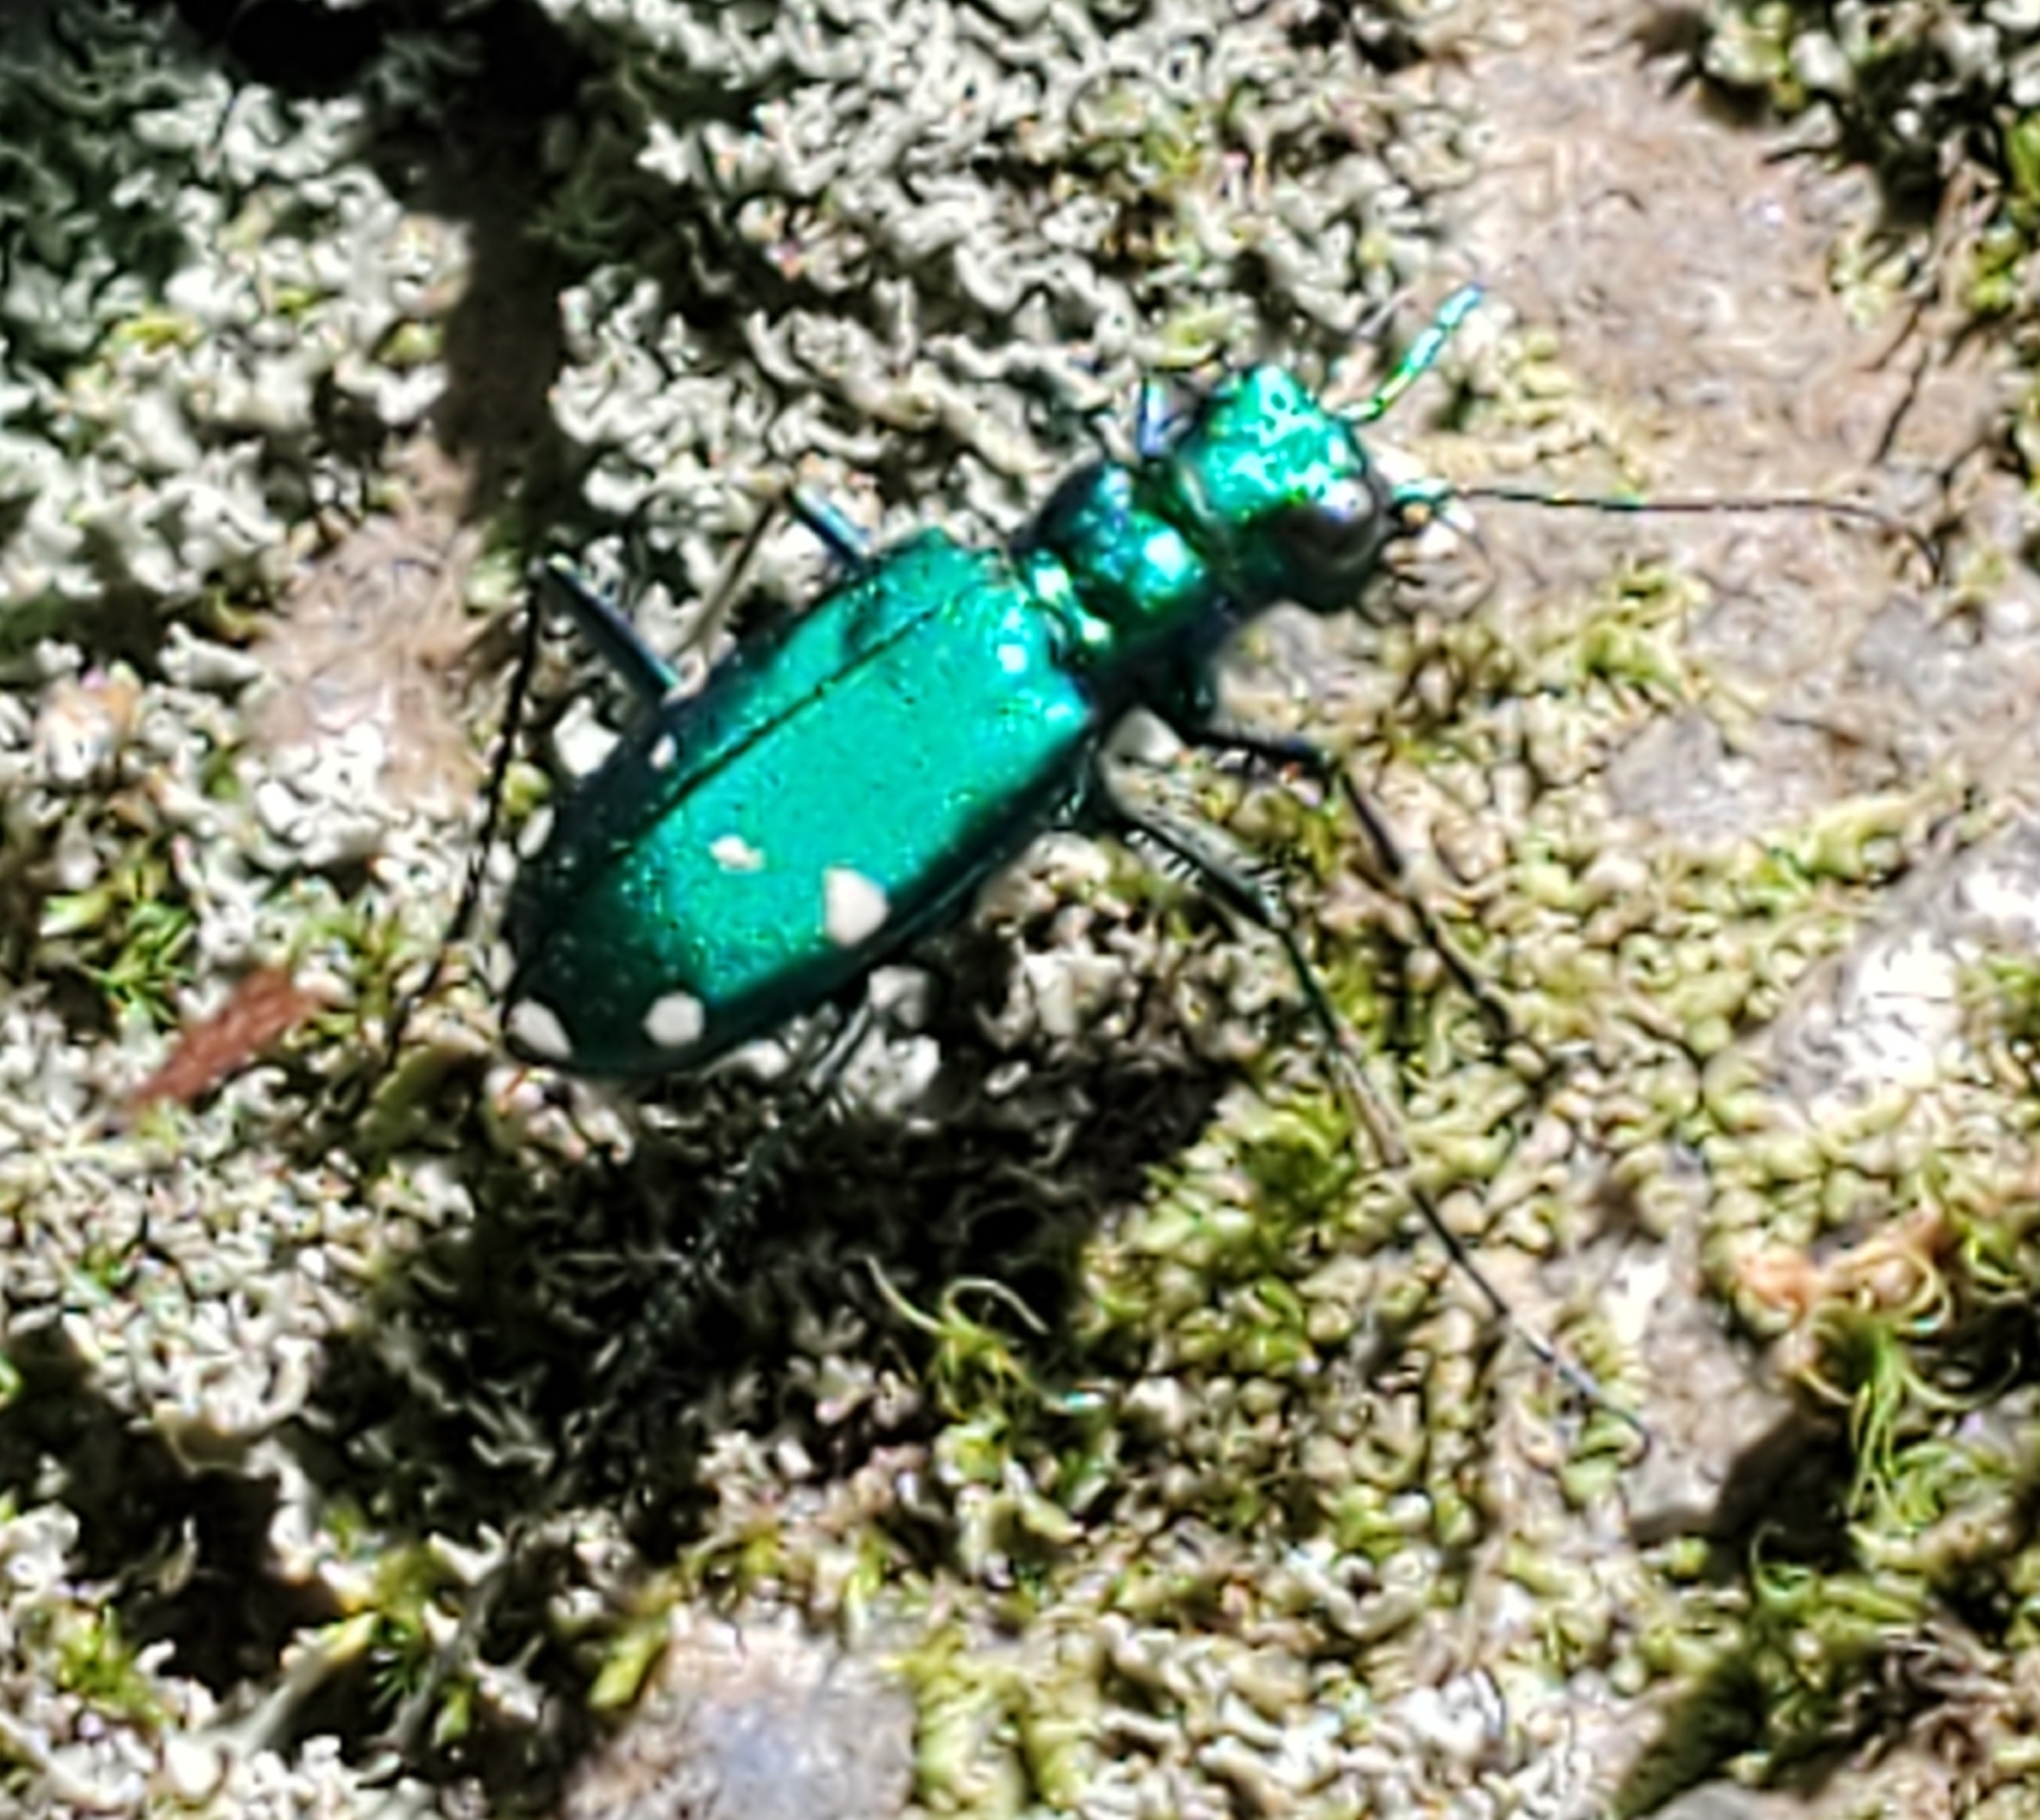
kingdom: Animalia
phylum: Arthropoda
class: Insecta
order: Coleoptera
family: Carabidae
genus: Cicindela
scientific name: Cicindela sexguttata
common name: Six-spotted tiger beetle
